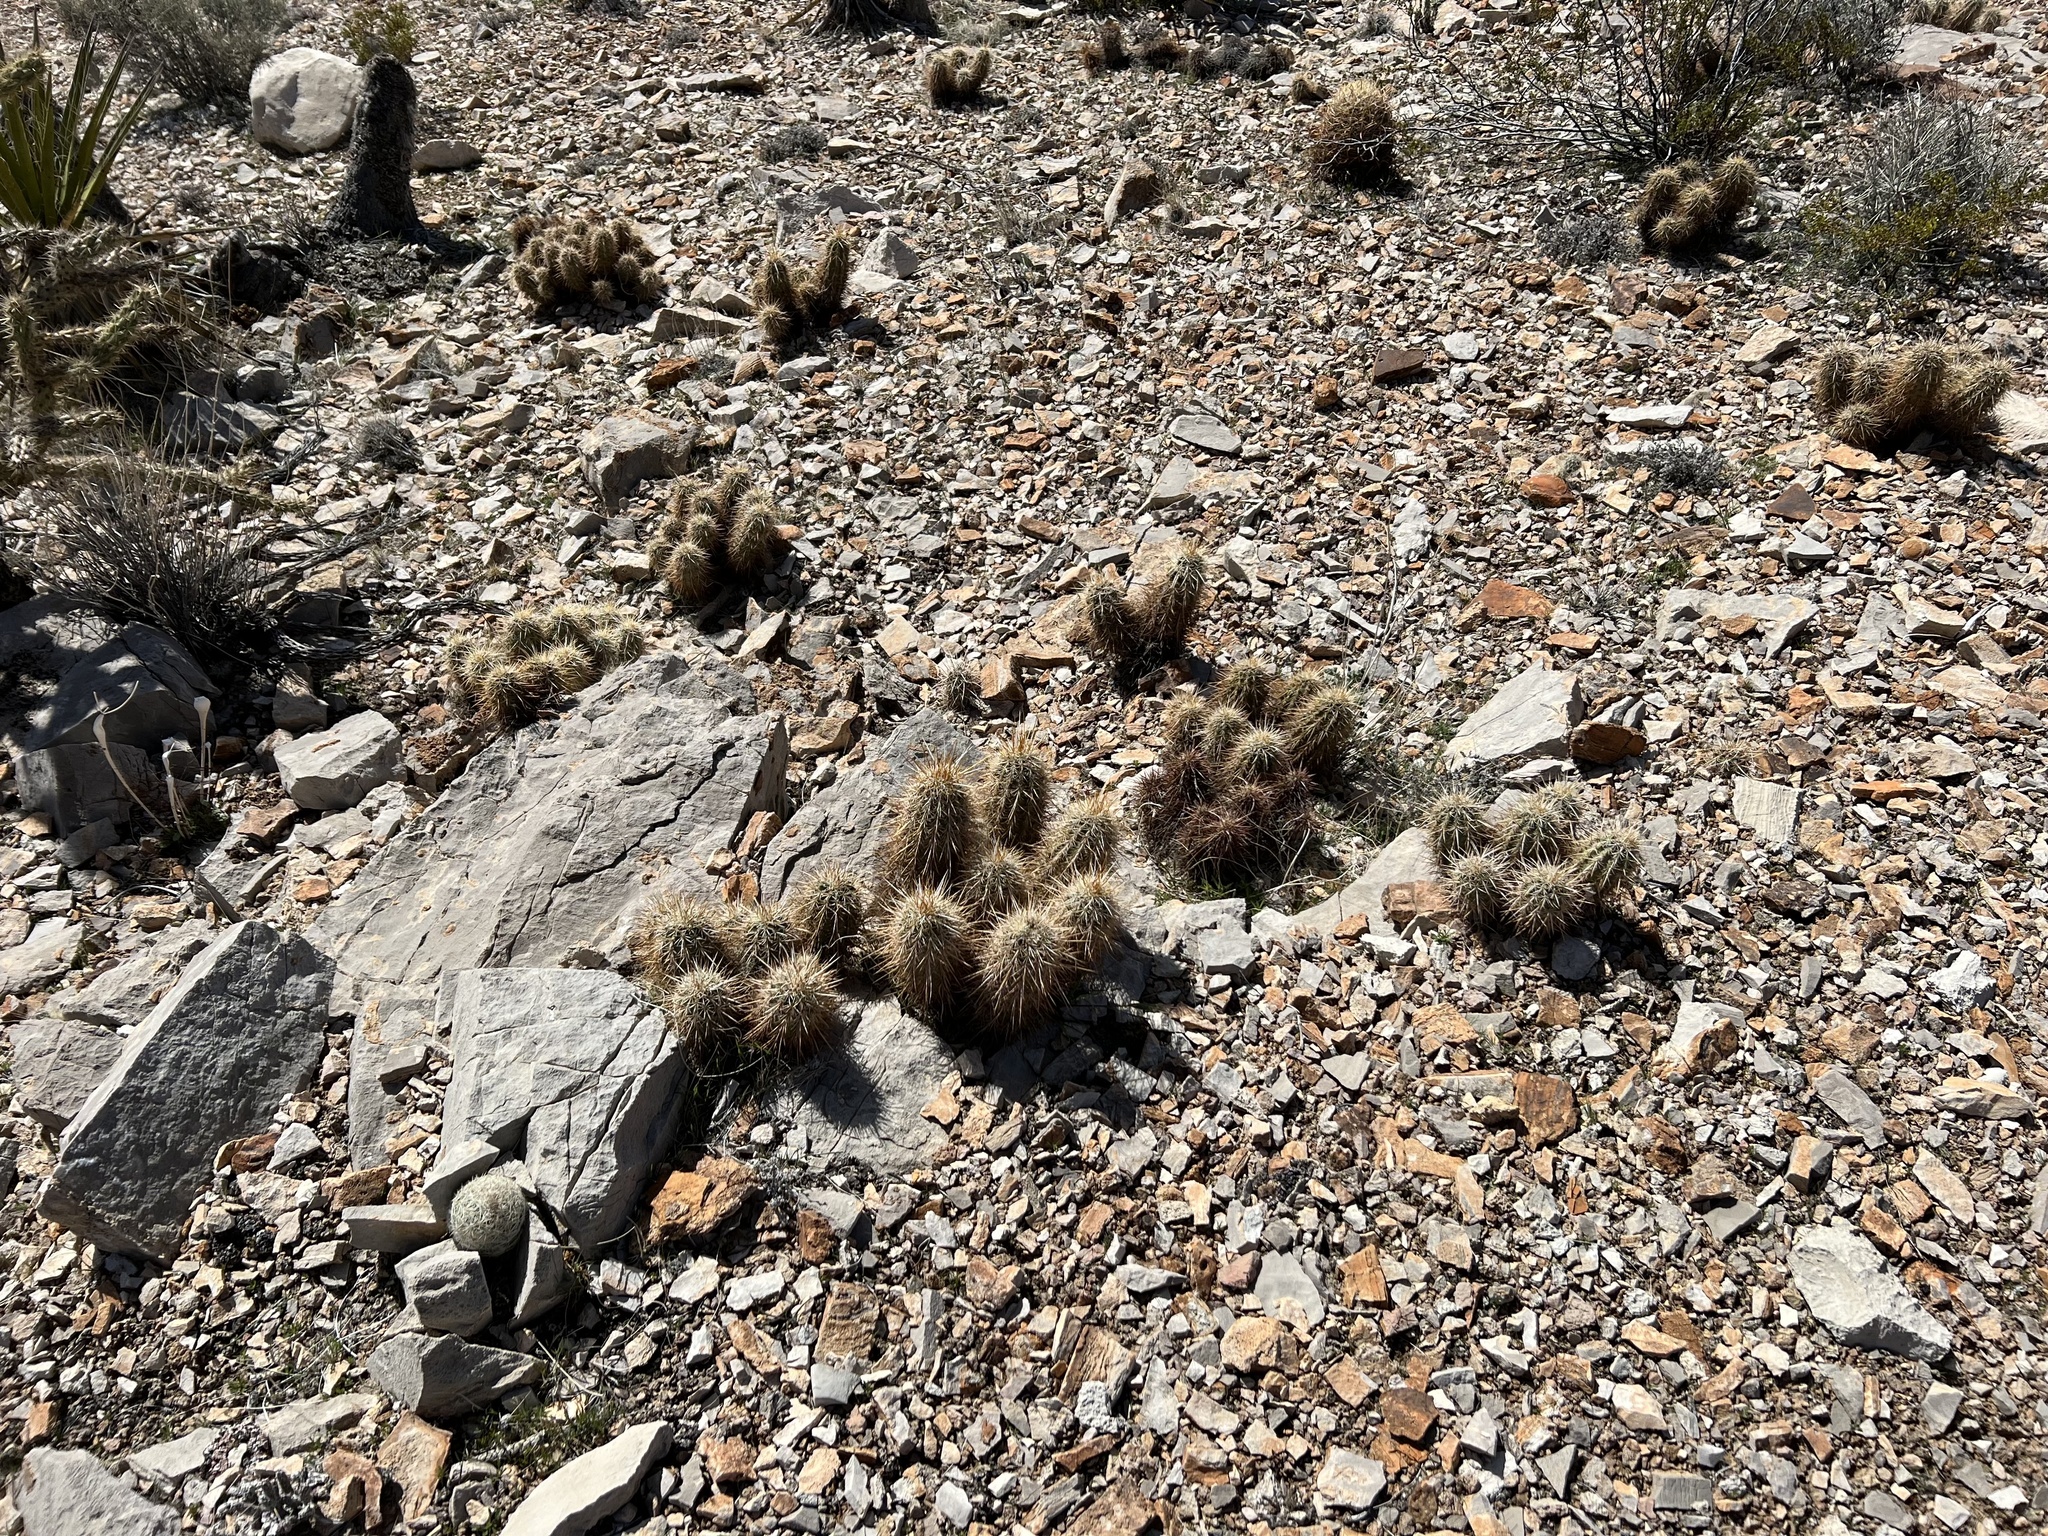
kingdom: Plantae
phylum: Tracheophyta
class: Magnoliopsida
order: Caryophyllales
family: Cactaceae
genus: Echinocereus
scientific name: Echinocereus engelmannii
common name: Engelmann's hedgehog cactus
